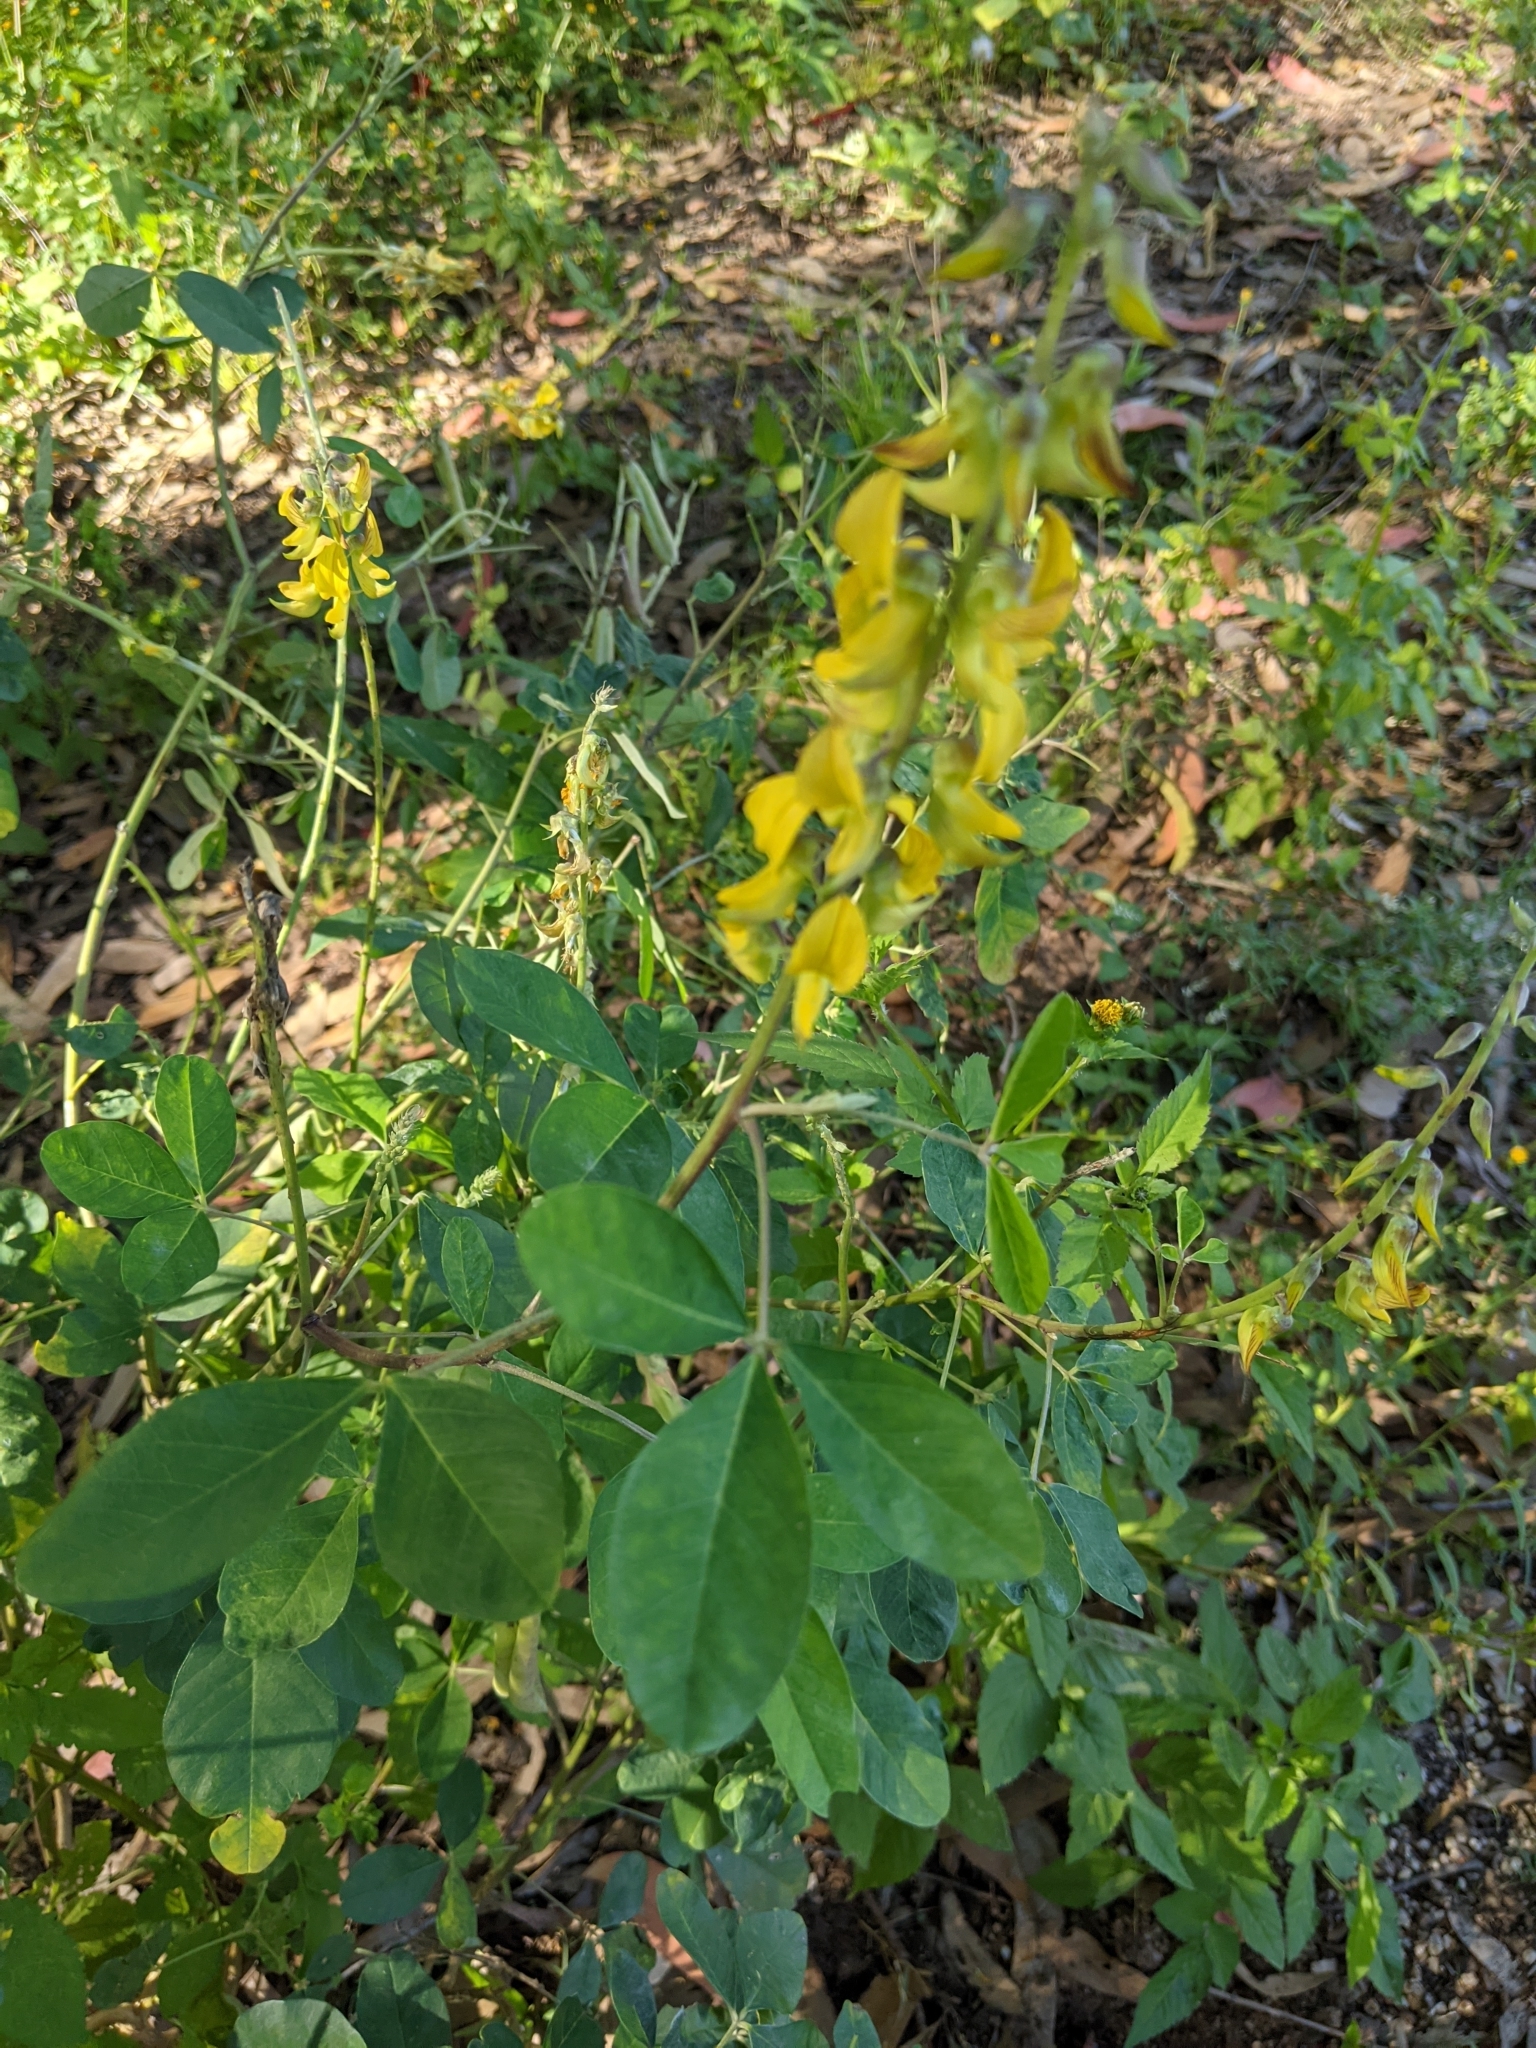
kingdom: Plantae
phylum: Tracheophyta
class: Magnoliopsida
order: Fabales
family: Fabaceae
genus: Crotalaria
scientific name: Crotalaria pallida
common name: Smooth rattlebox
